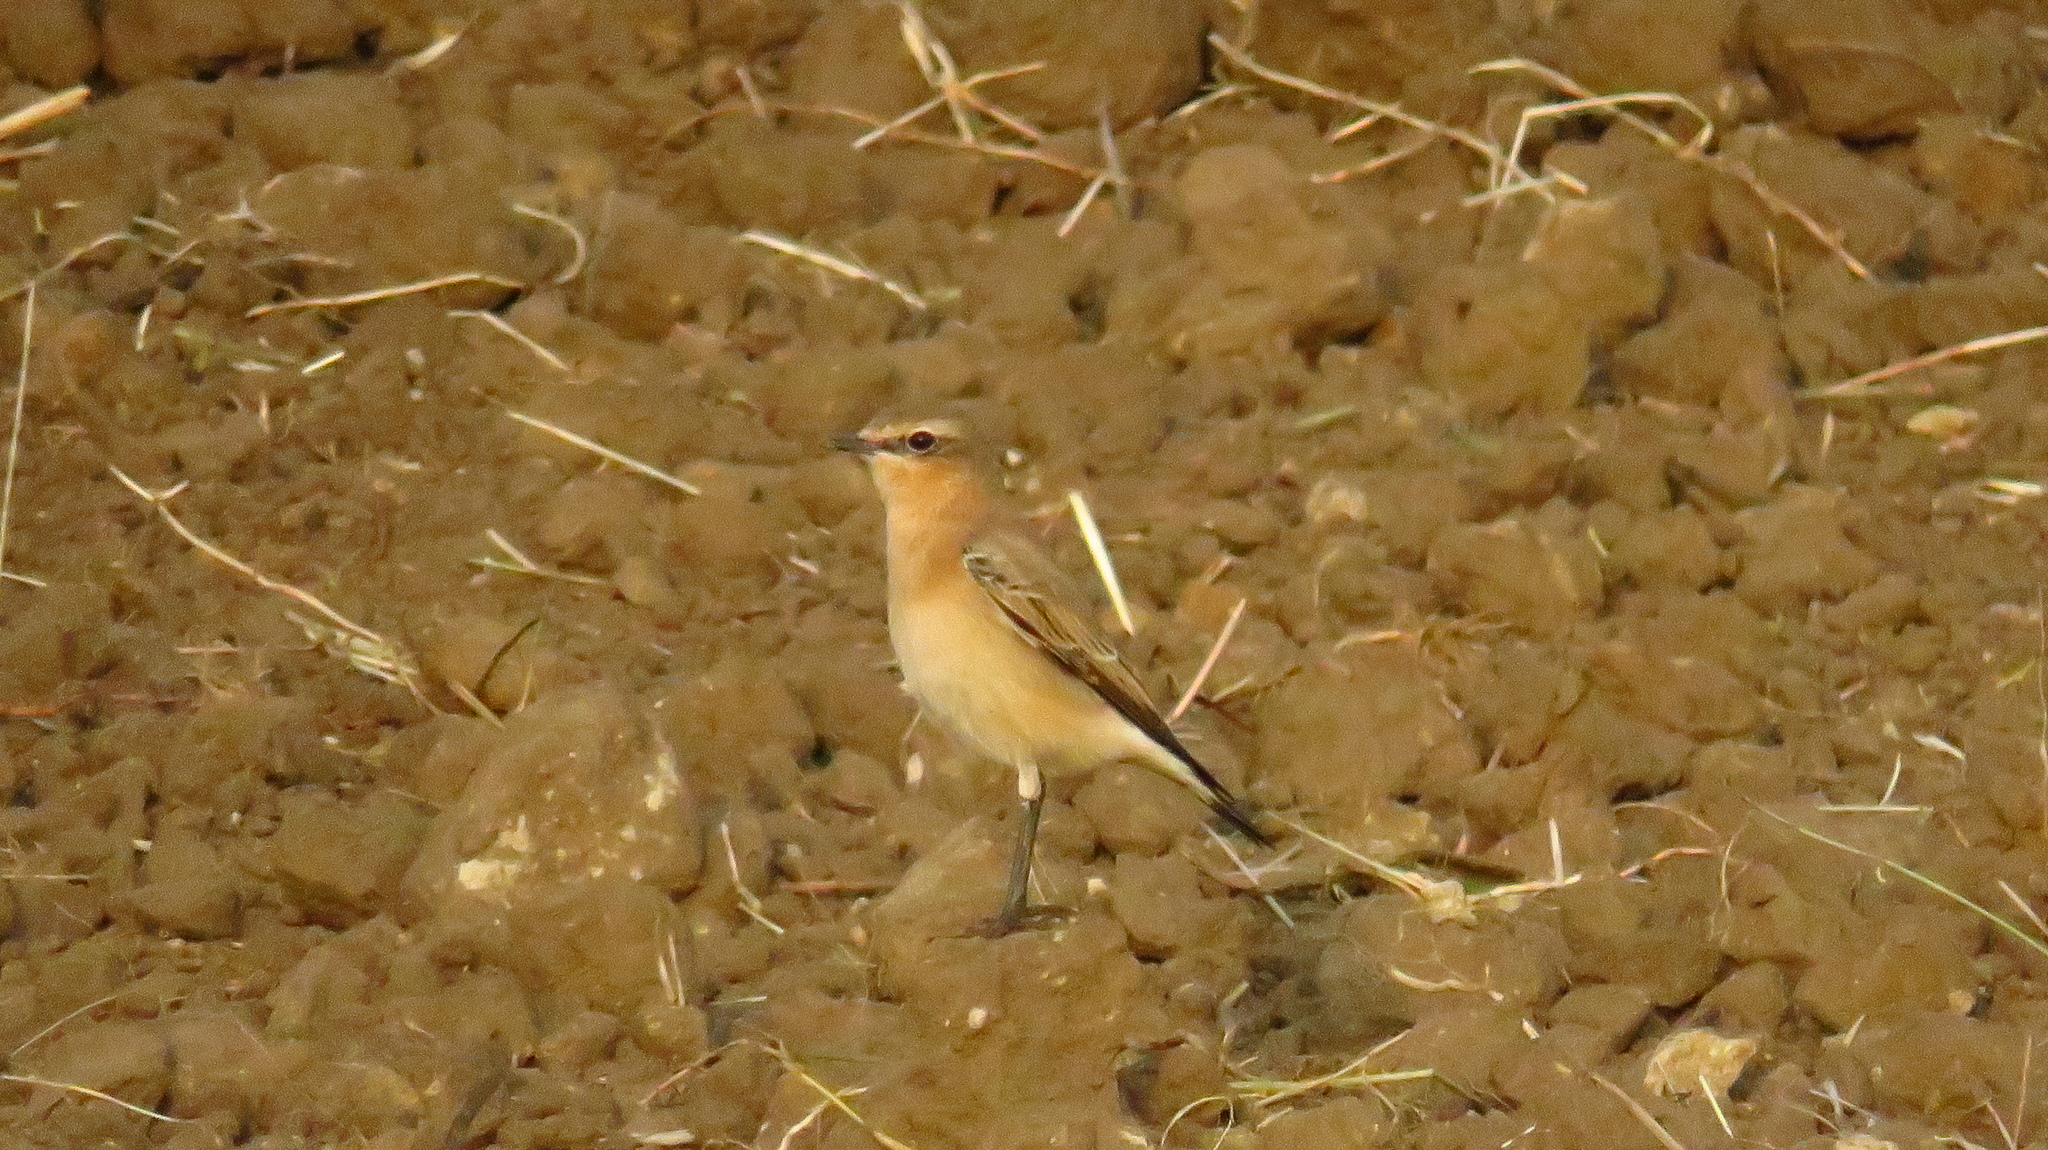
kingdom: Animalia
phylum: Chordata
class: Aves
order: Passeriformes
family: Muscicapidae
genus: Oenanthe
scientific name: Oenanthe oenanthe
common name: Northern wheatear
